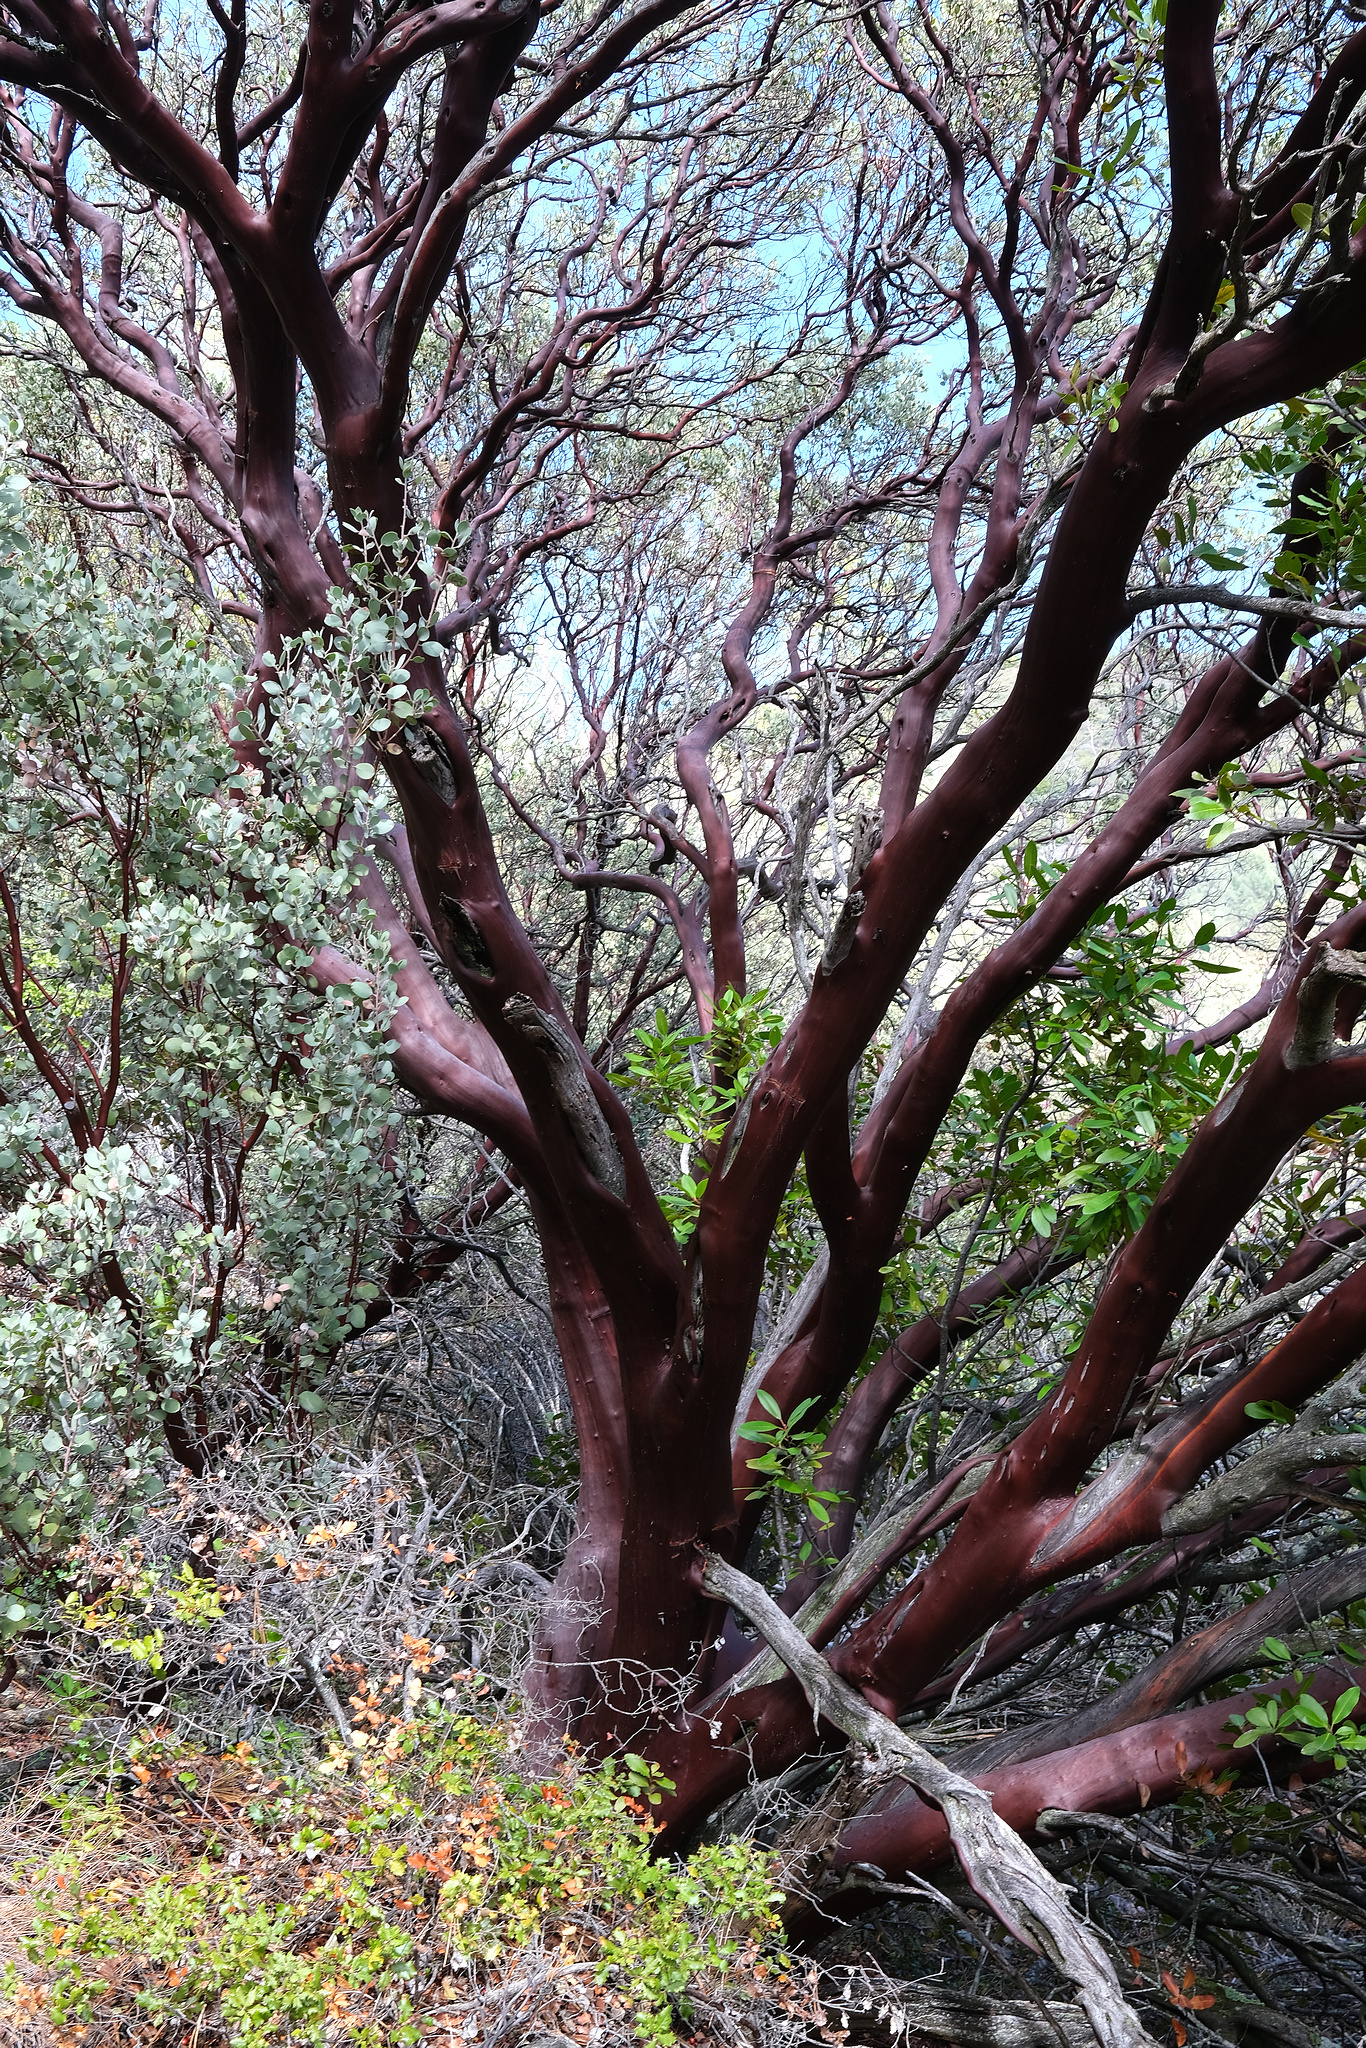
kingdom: Plantae
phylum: Tracheophyta
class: Magnoliopsida
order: Ericales
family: Ericaceae
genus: Arctostaphylos
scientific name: Arctostaphylos obispoensis
